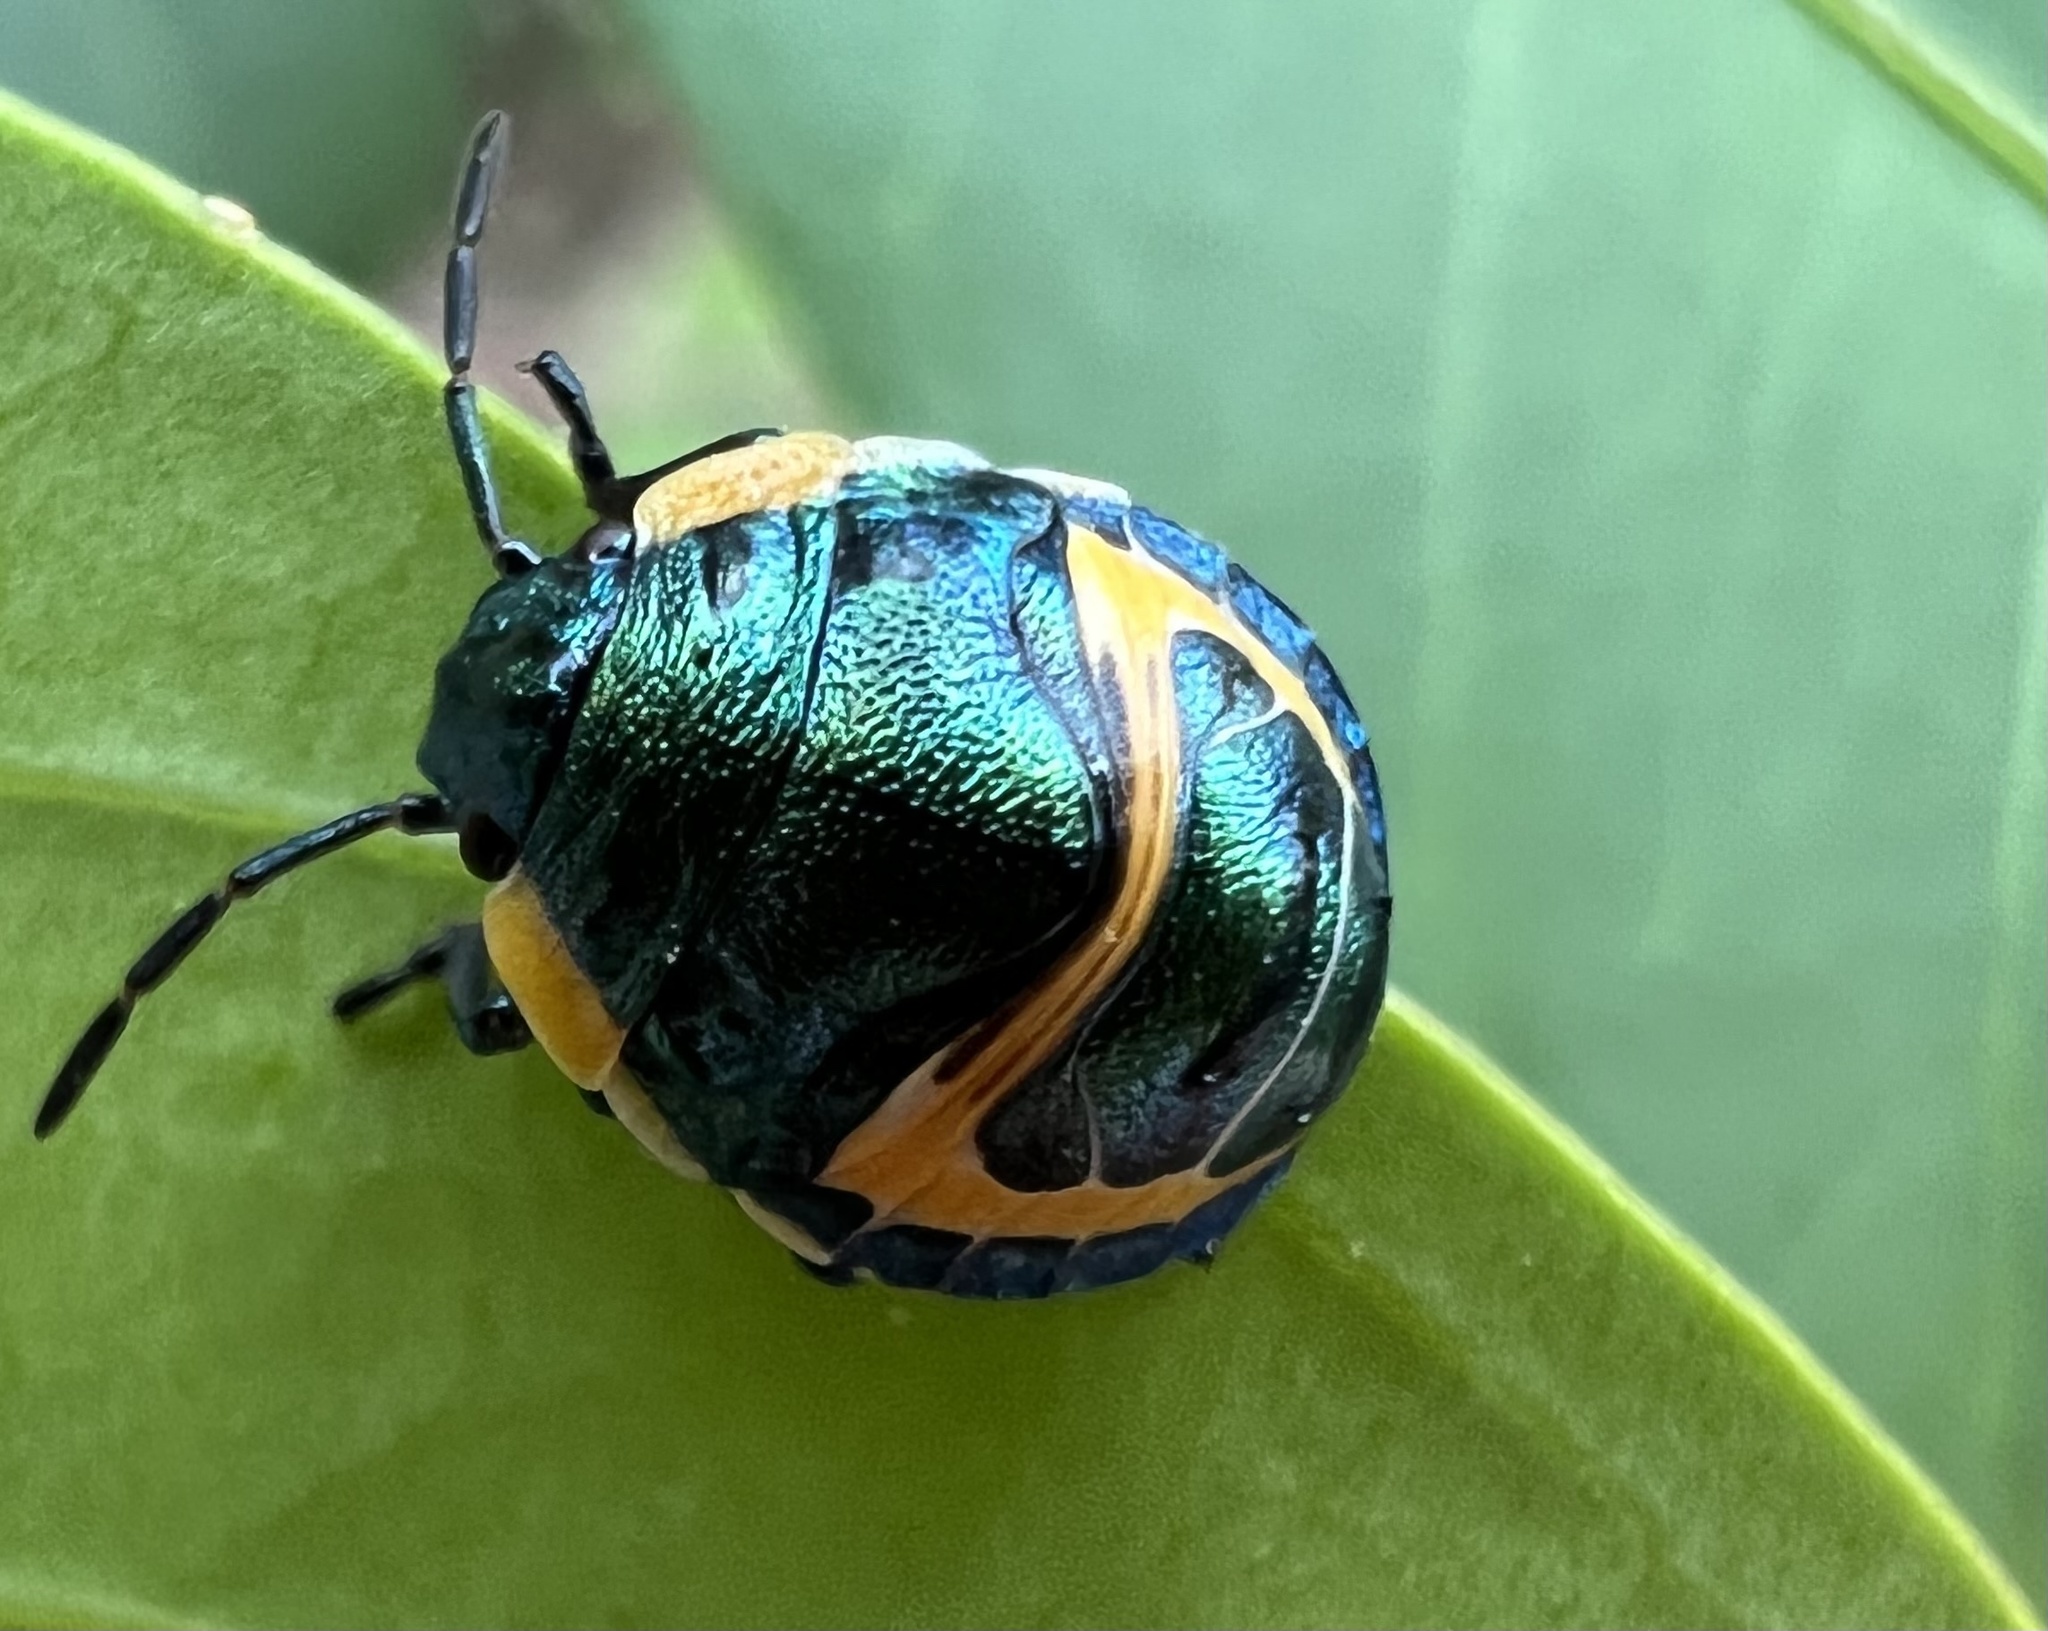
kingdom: Animalia
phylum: Arthropoda
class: Insecta
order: Hemiptera
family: Scutelleridae
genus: Scutiphora
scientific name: Scutiphora pedicellata
